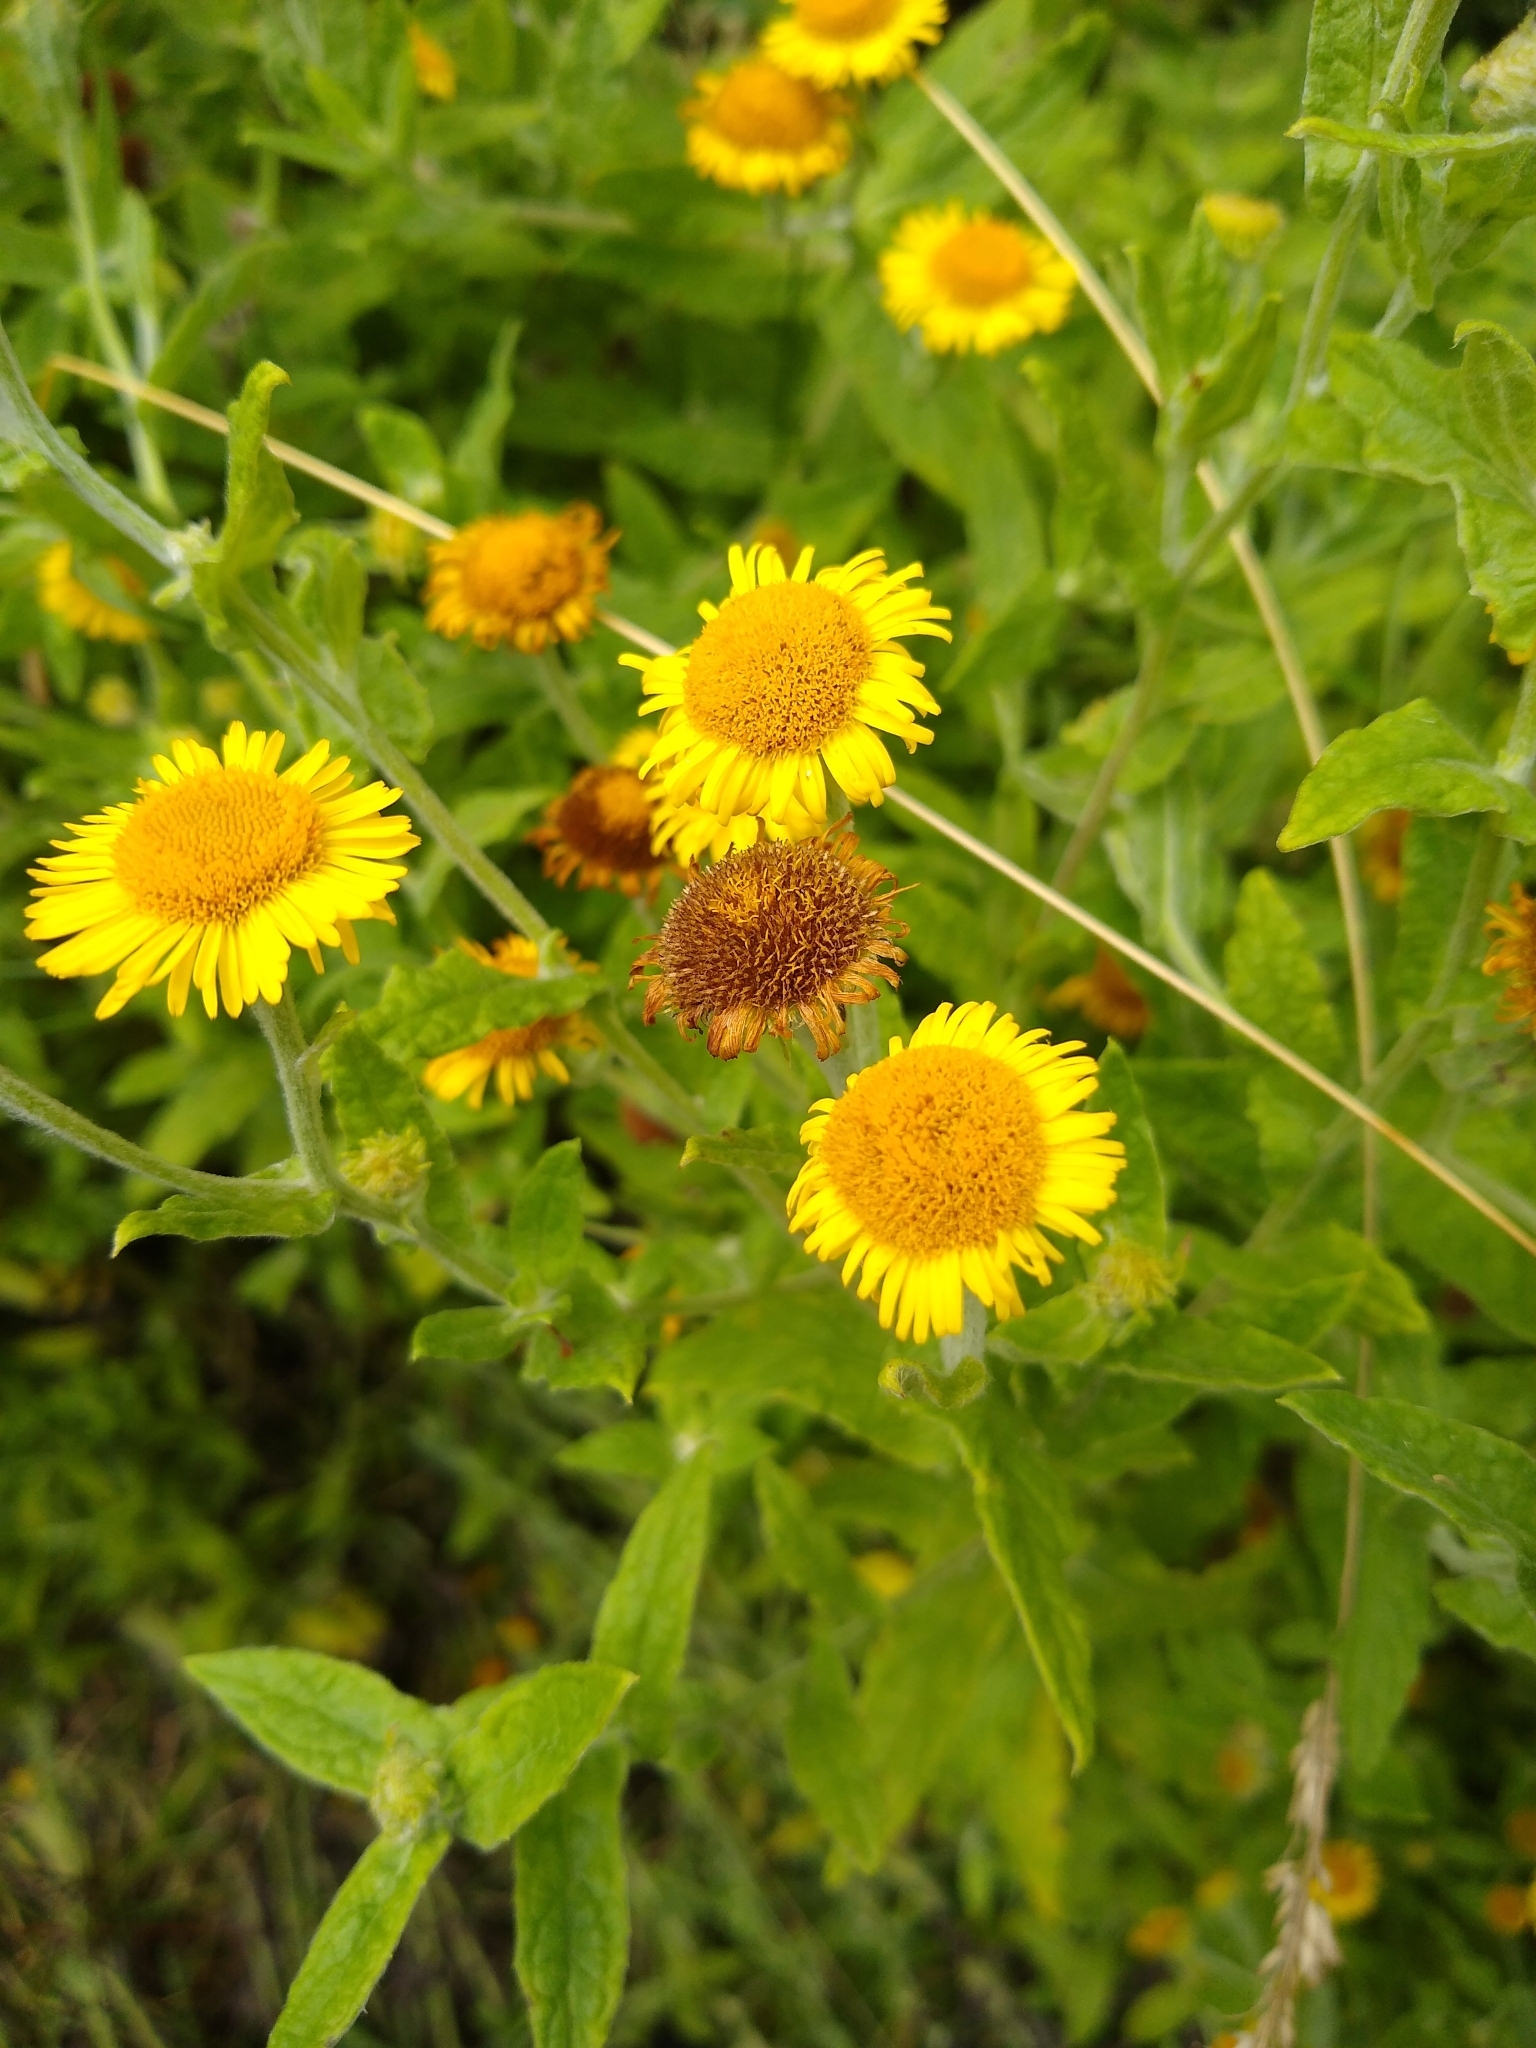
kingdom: Plantae
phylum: Tracheophyta
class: Magnoliopsida
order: Asterales
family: Asteraceae
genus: Pulicaria
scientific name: Pulicaria dysenterica
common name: Common fleabane
